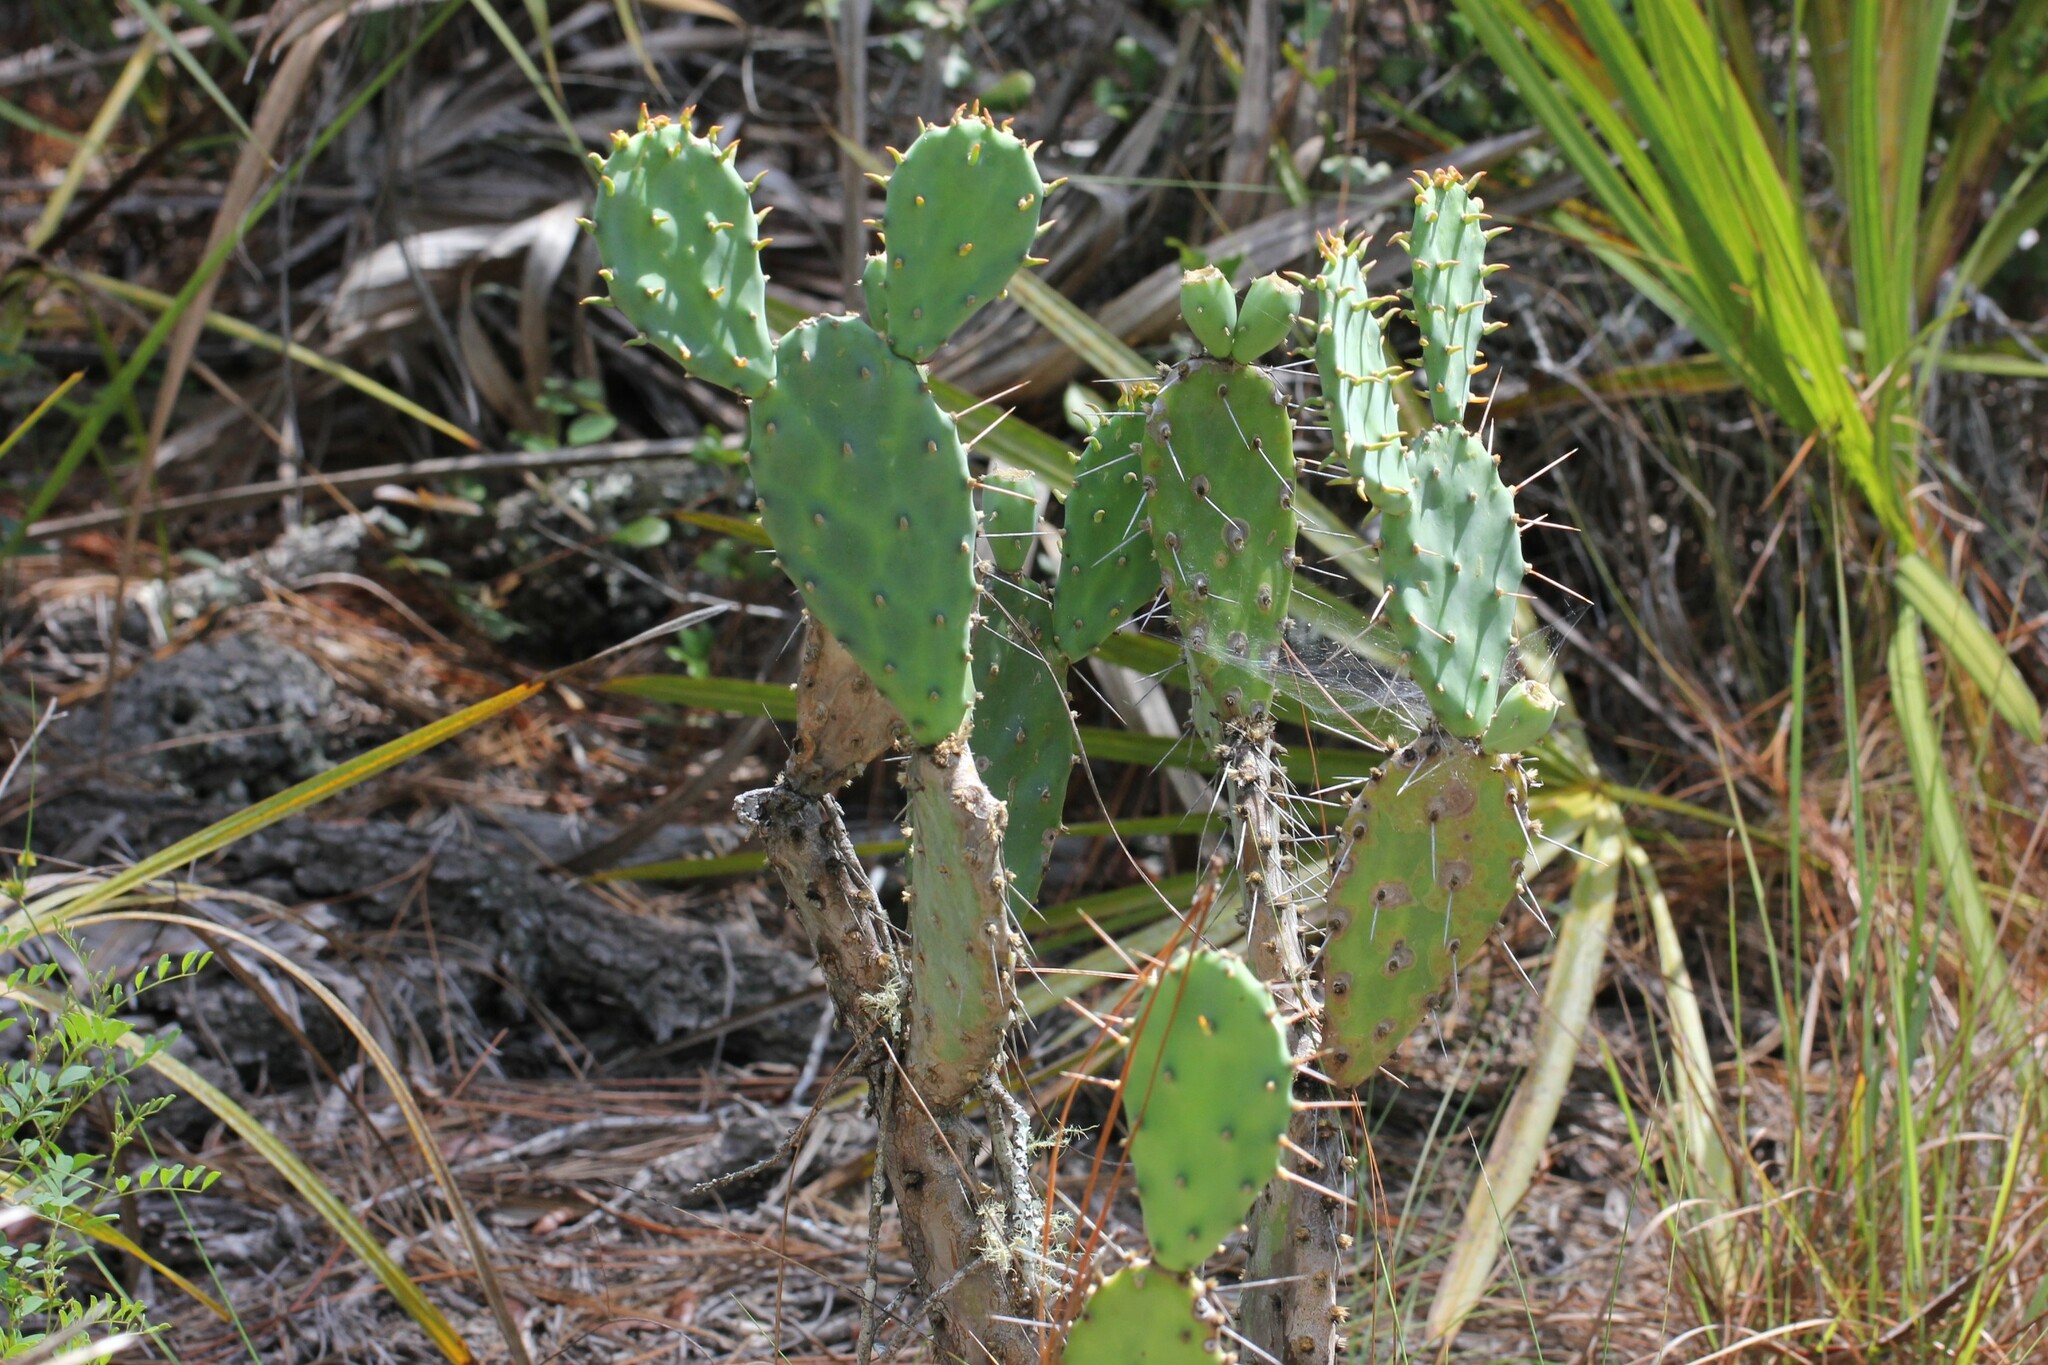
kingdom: Plantae
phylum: Tracheophyta
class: Magnoliopsida
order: Caryophyllales
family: Cactaceae
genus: Opuntia
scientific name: Opuntia austrina
